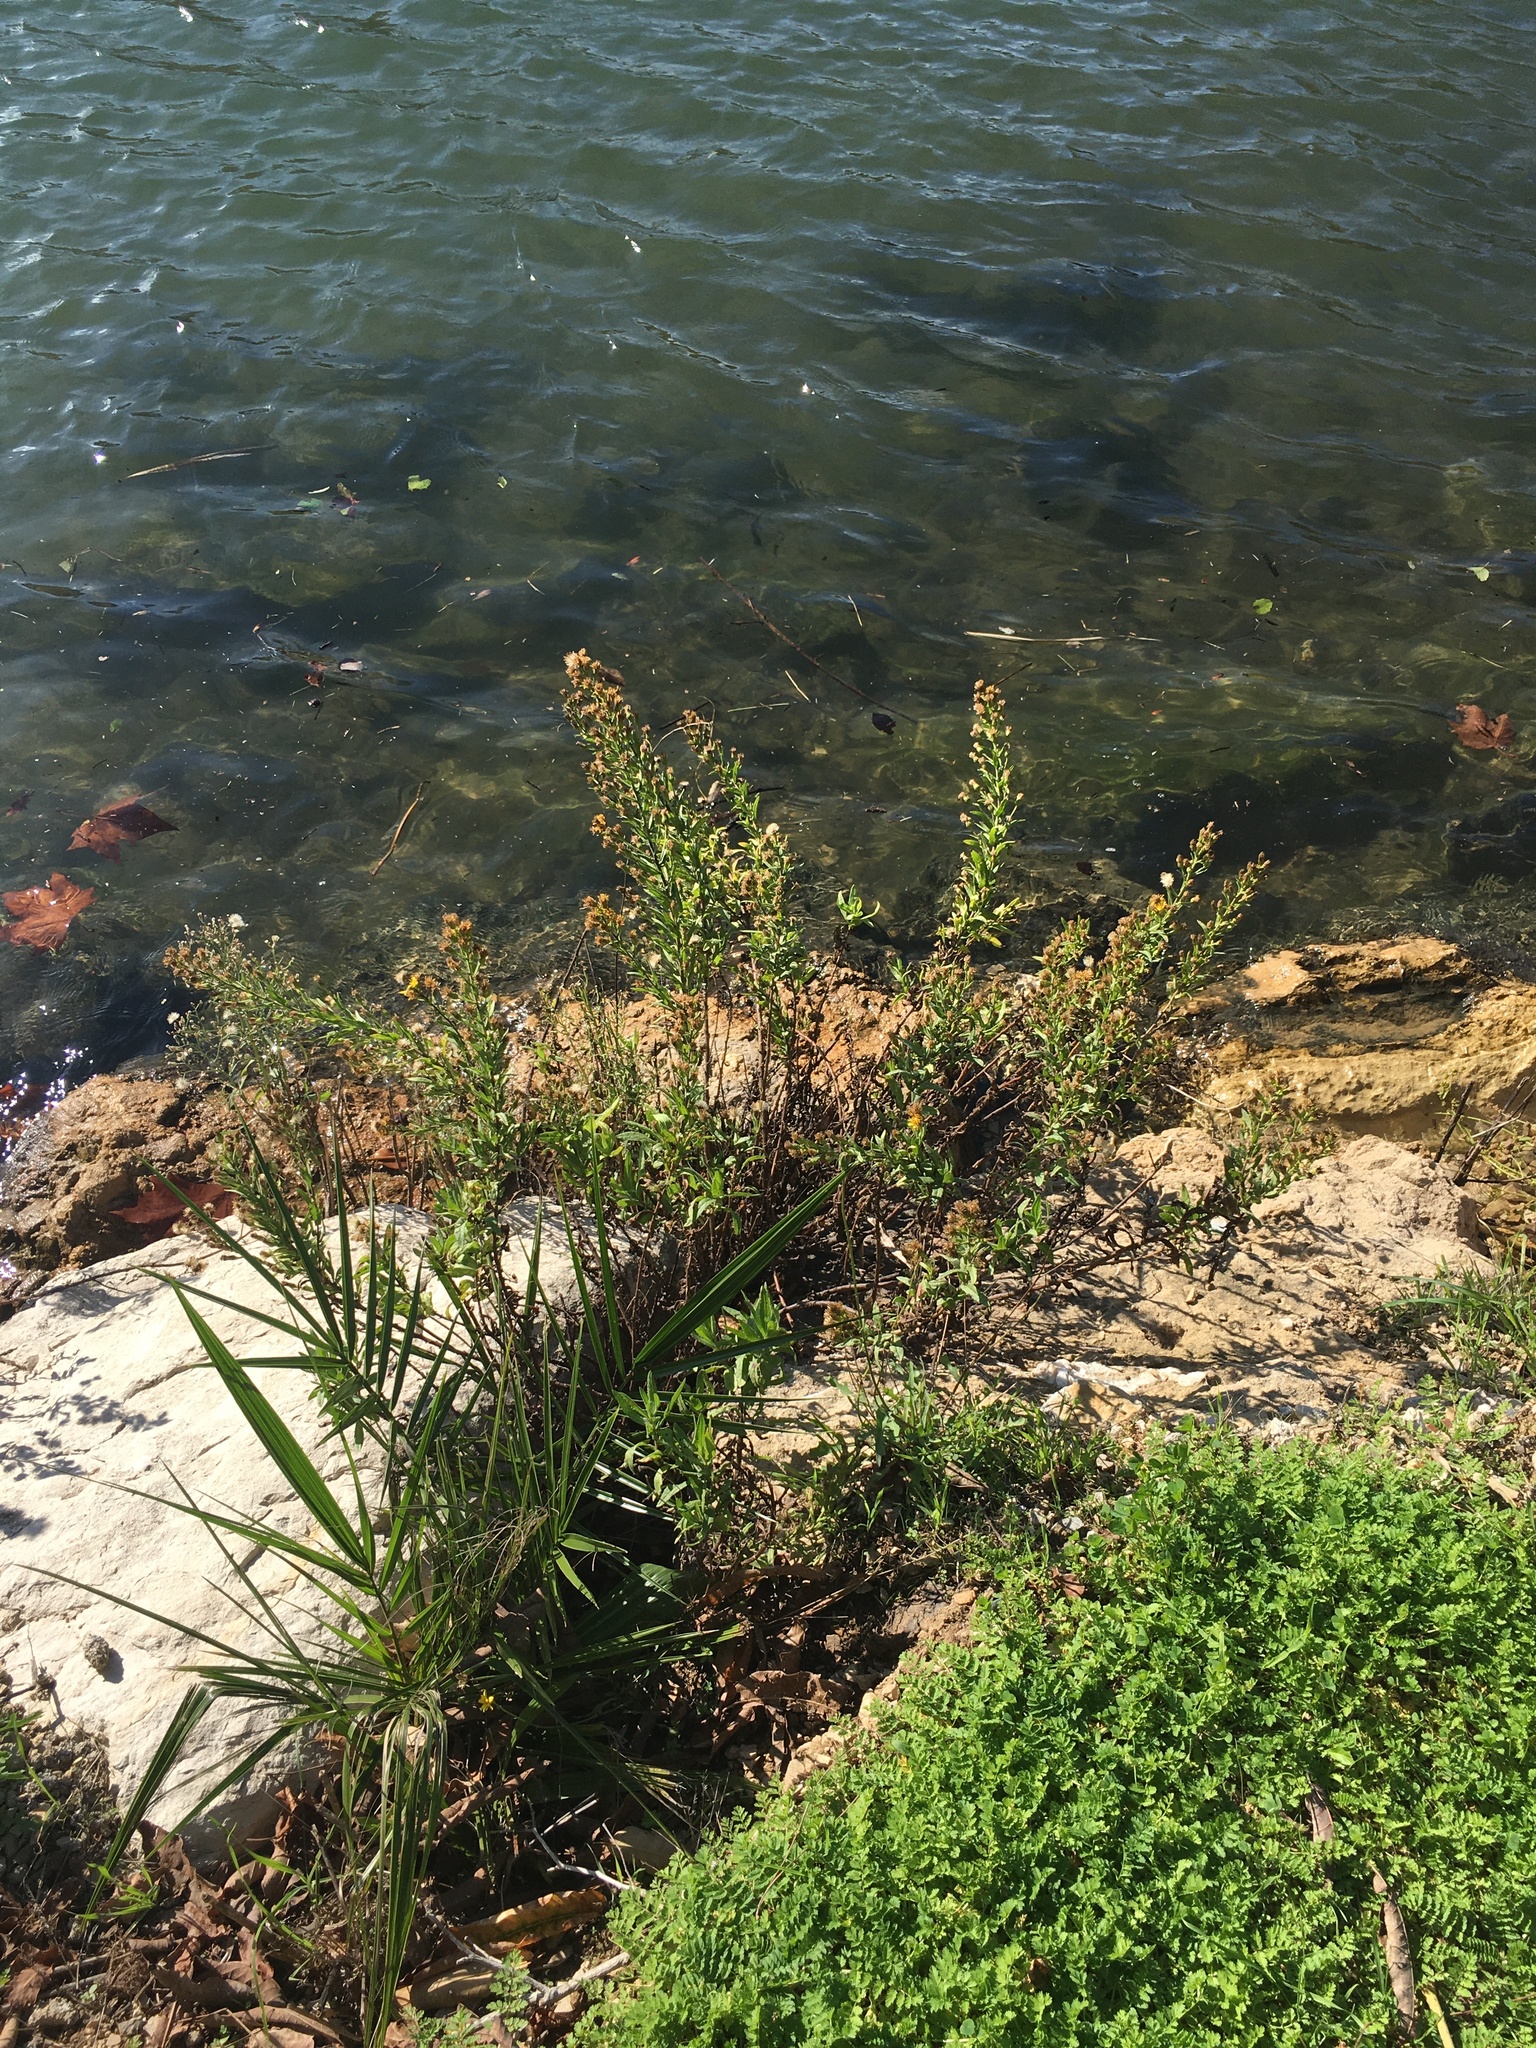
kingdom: Plantae
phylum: Tracheophyta
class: Magnoliopsida
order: Asterales
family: Asteraceae
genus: Dittrichia
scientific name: Dittrichia viscosa
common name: Woody fleabane
